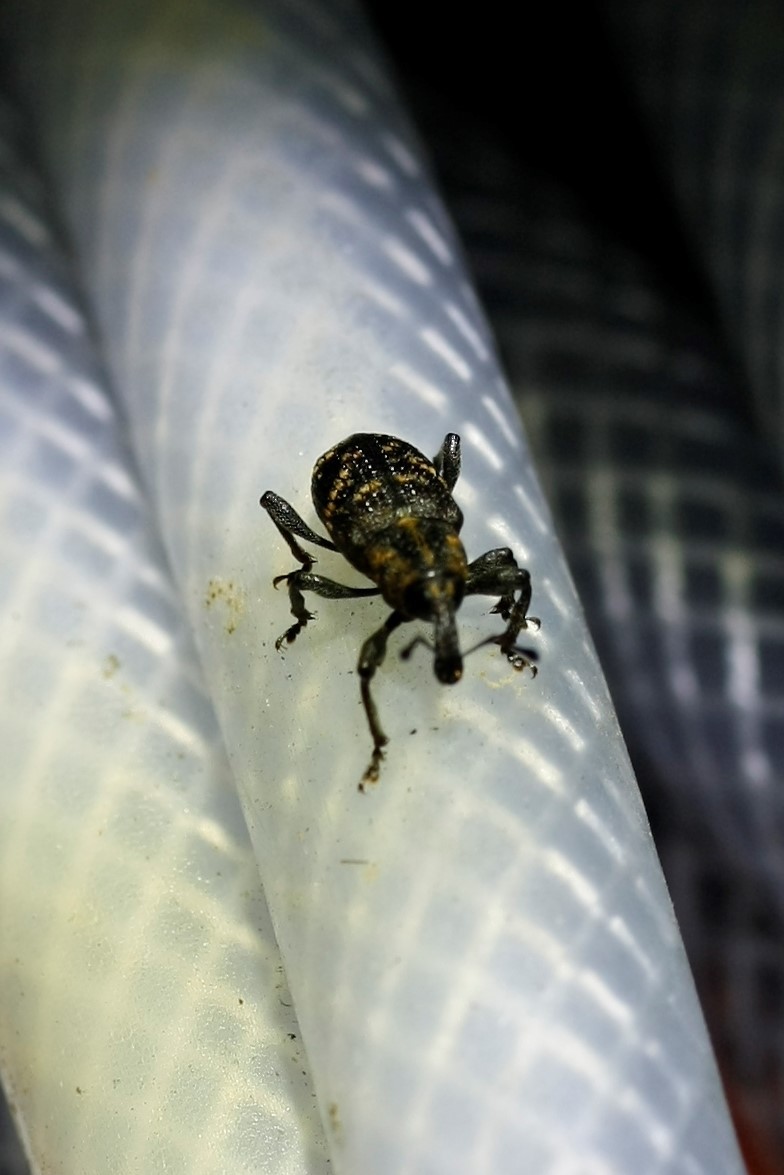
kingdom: Animalia
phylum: Arthropoda
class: Insecta
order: Coleoptera
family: Curculionidae
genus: Hylobius
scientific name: Hylobius abietis
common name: Large pine weevil
